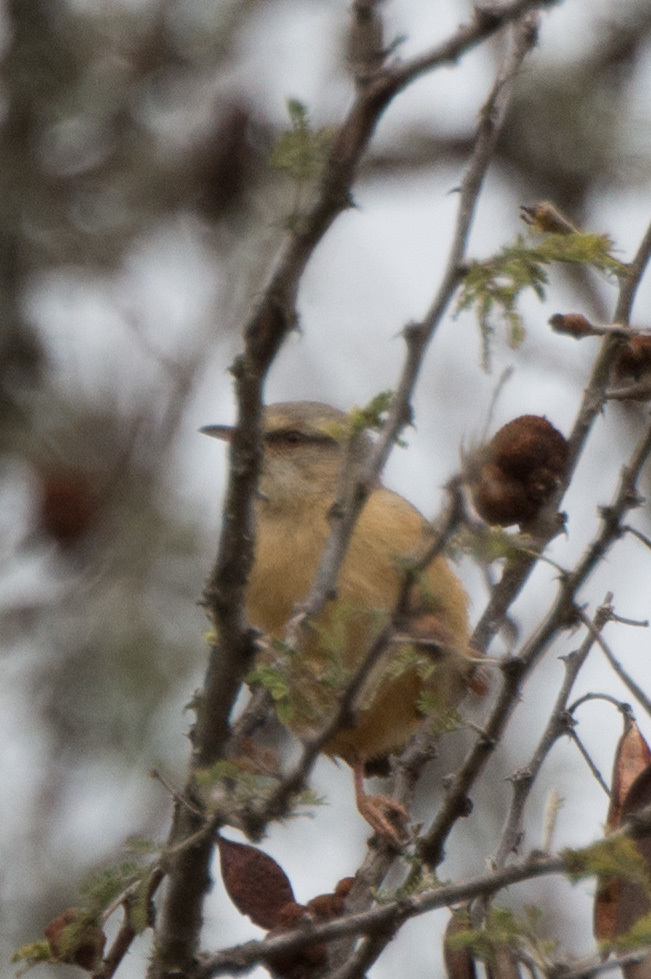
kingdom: Animalia
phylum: Chordata
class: Aves
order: Passeriformes
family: Macrosphenidae
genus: Sylvietta
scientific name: Sylvietta rufescens
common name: Long-billed crombec
